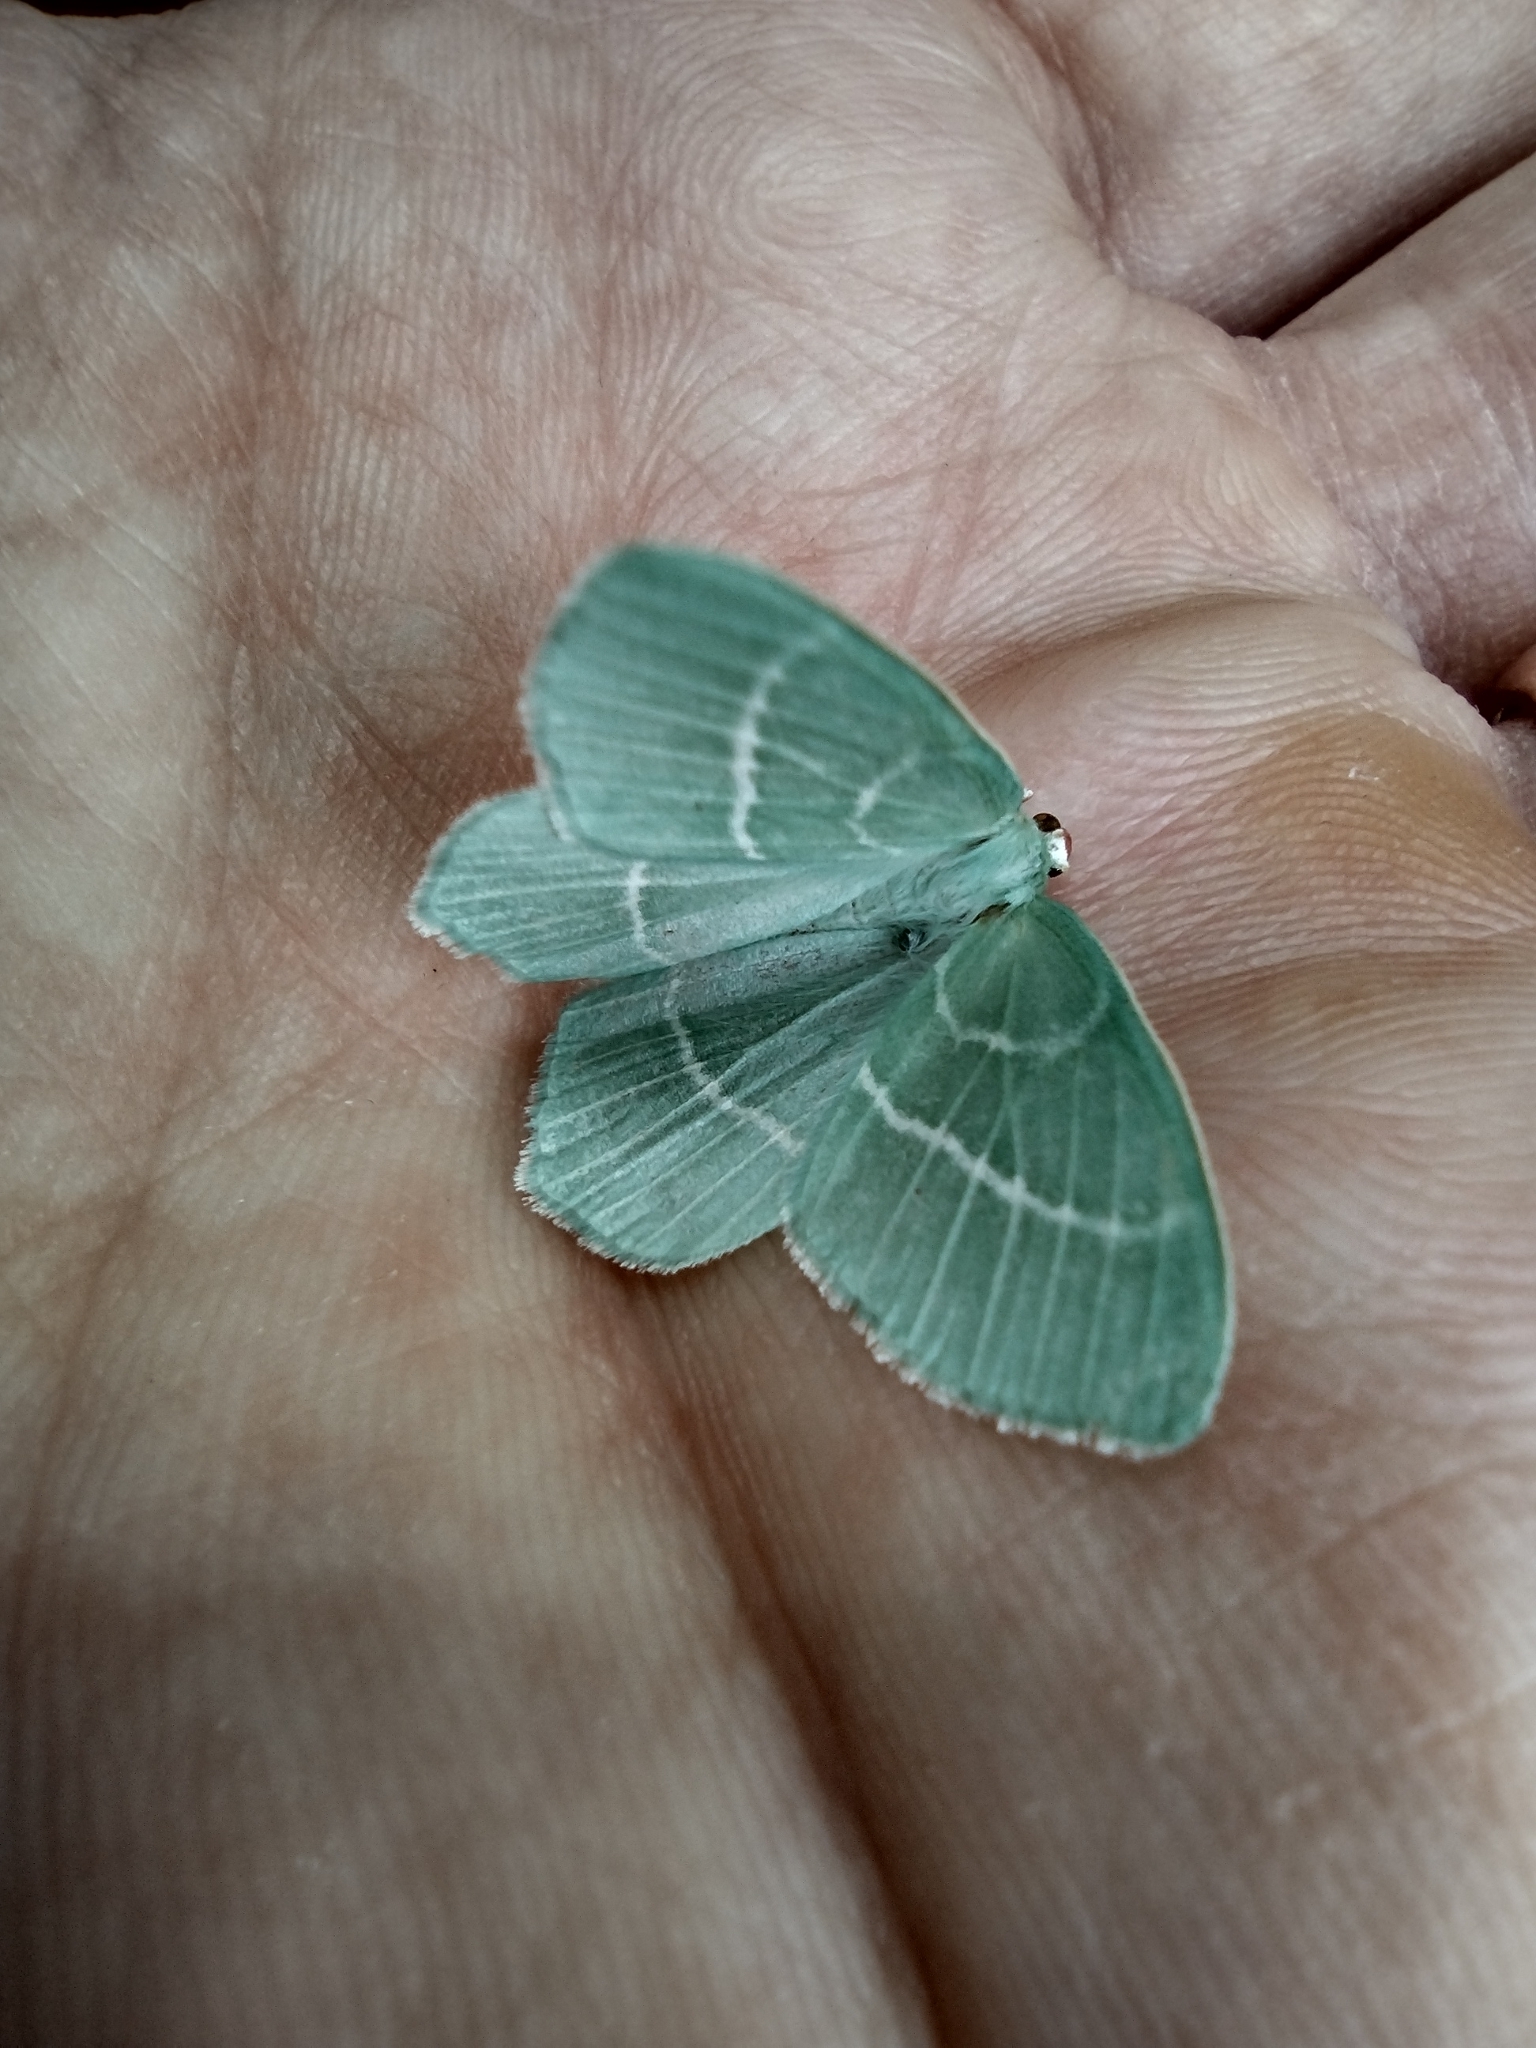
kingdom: Animalia
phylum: Arthropoda
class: Insecta
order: Lepidoptera
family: Geometridae
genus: Hemistola
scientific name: Hemistola chrysoprasaria
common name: Small emerald
